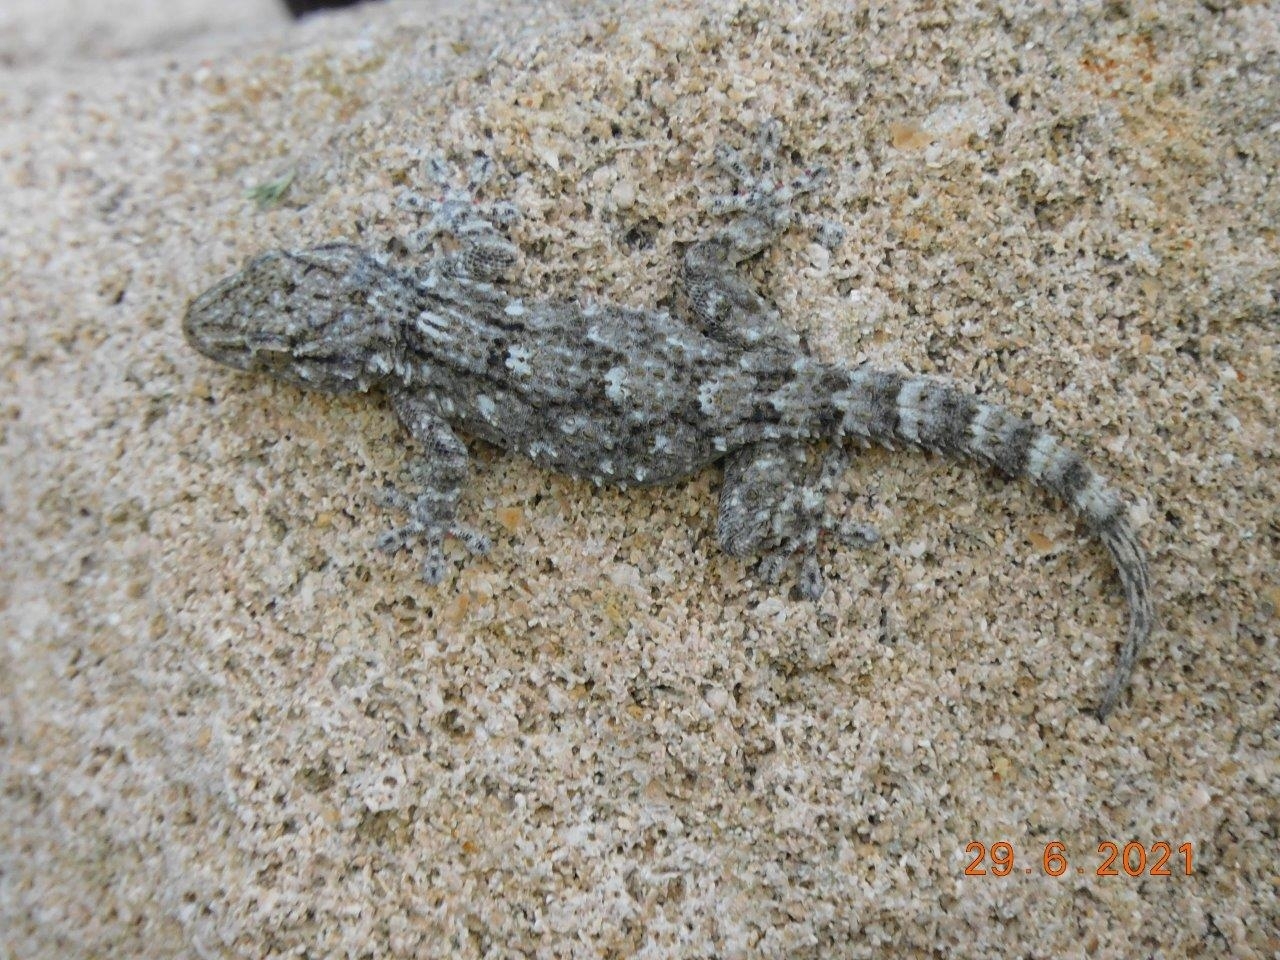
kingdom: Animalia
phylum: Chordata
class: Squamata
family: Phyllodactylidae
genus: Tarentola
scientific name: Tarentola mauritanica
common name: Moorish gecko
